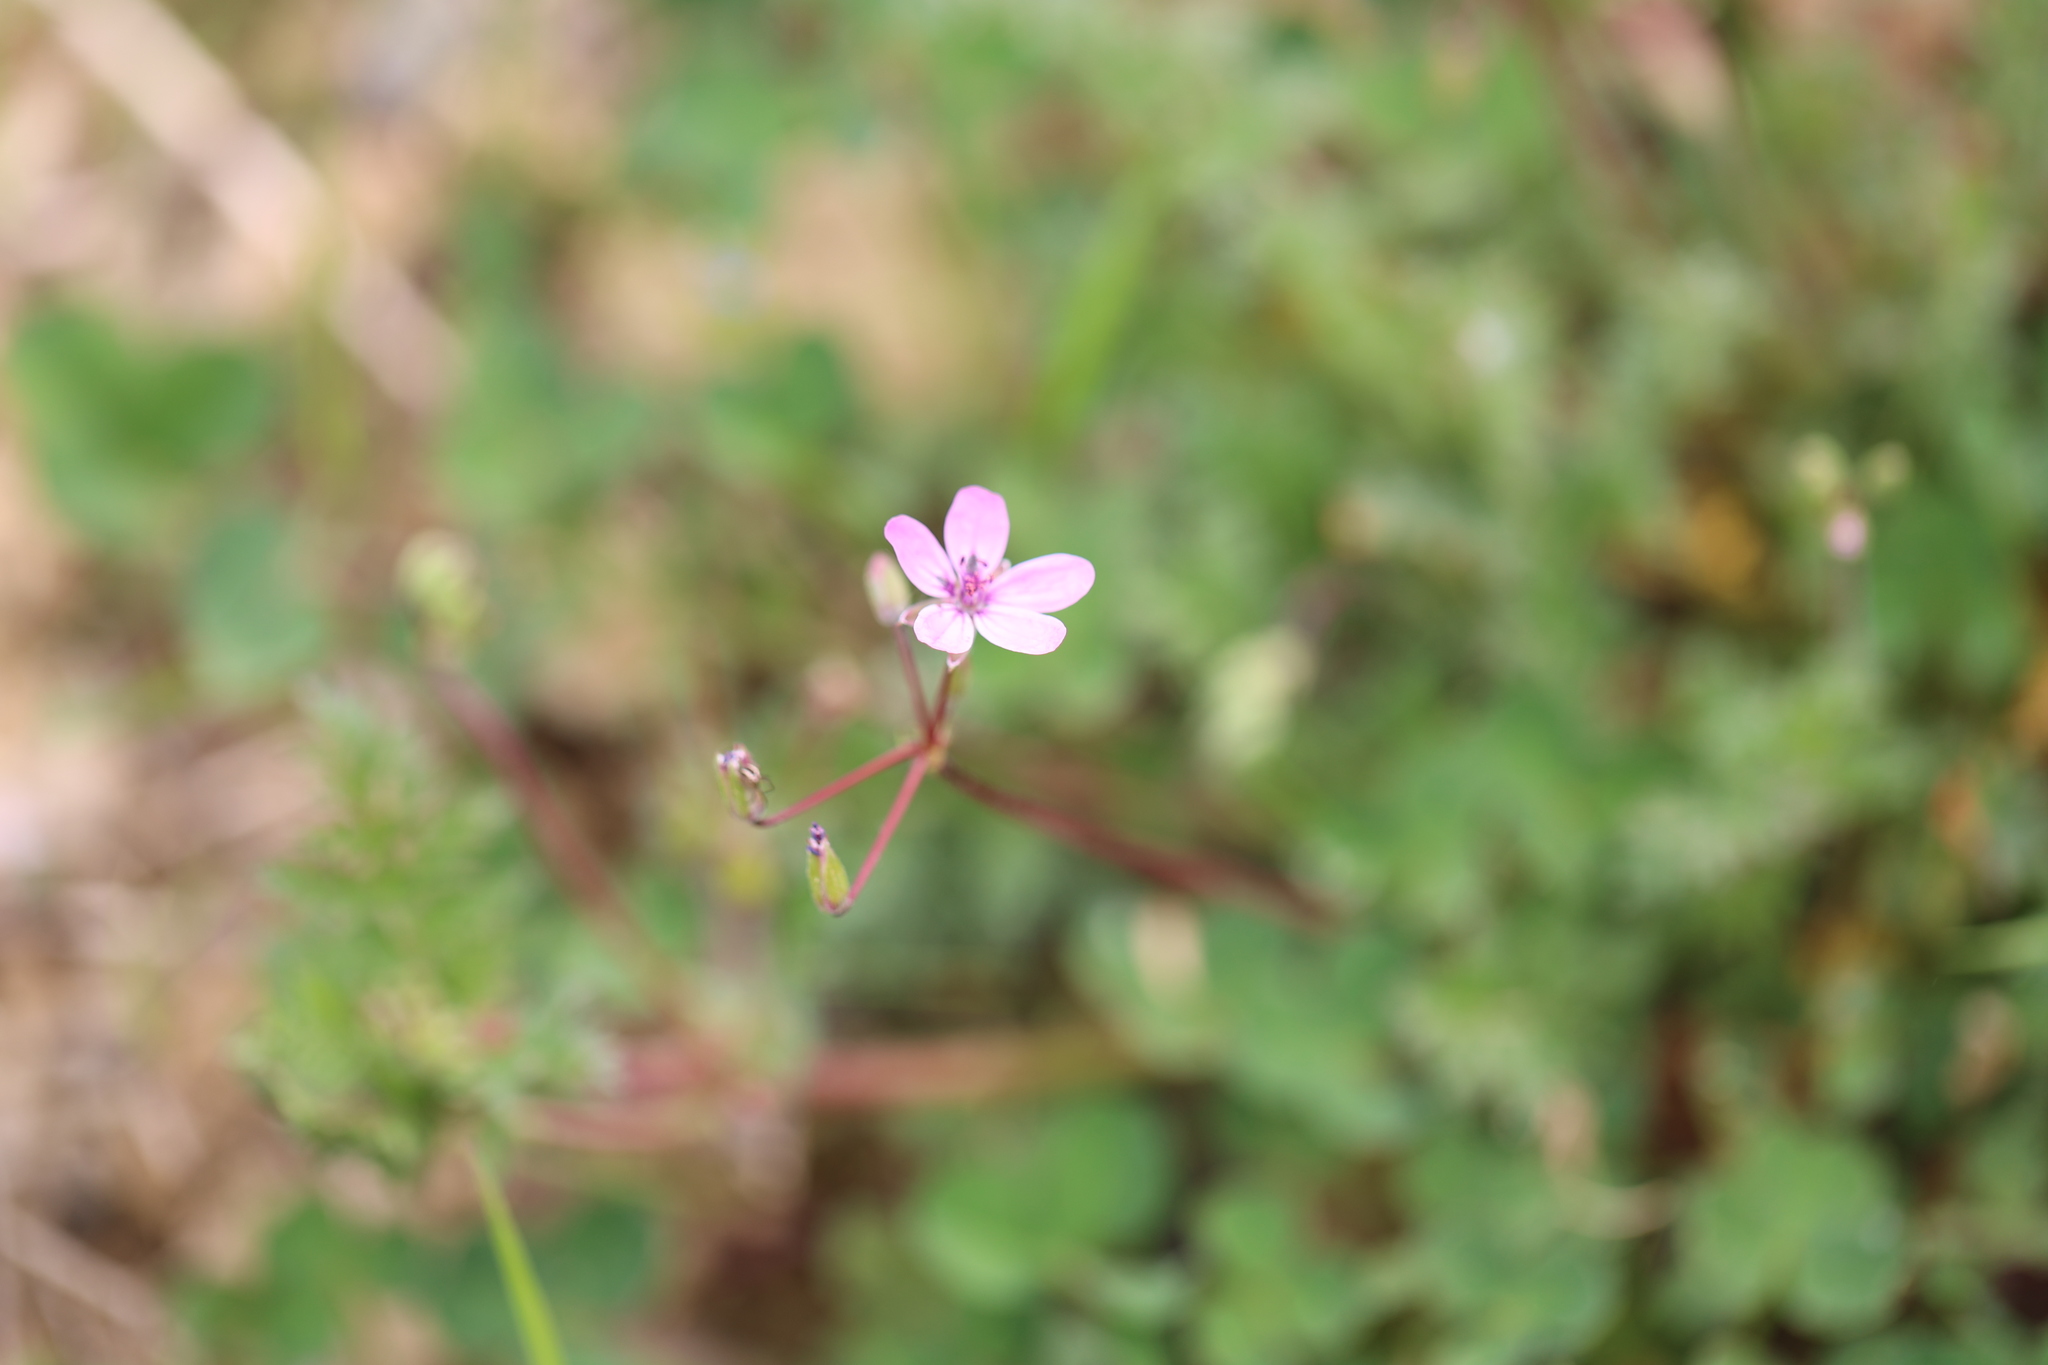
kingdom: Plantae
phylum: Tracheophyta
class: Magnoliopsida
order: Geraniales
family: Geraniaceae
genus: Erodium
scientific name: Erodium cicutarium
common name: Common stork's-bill
